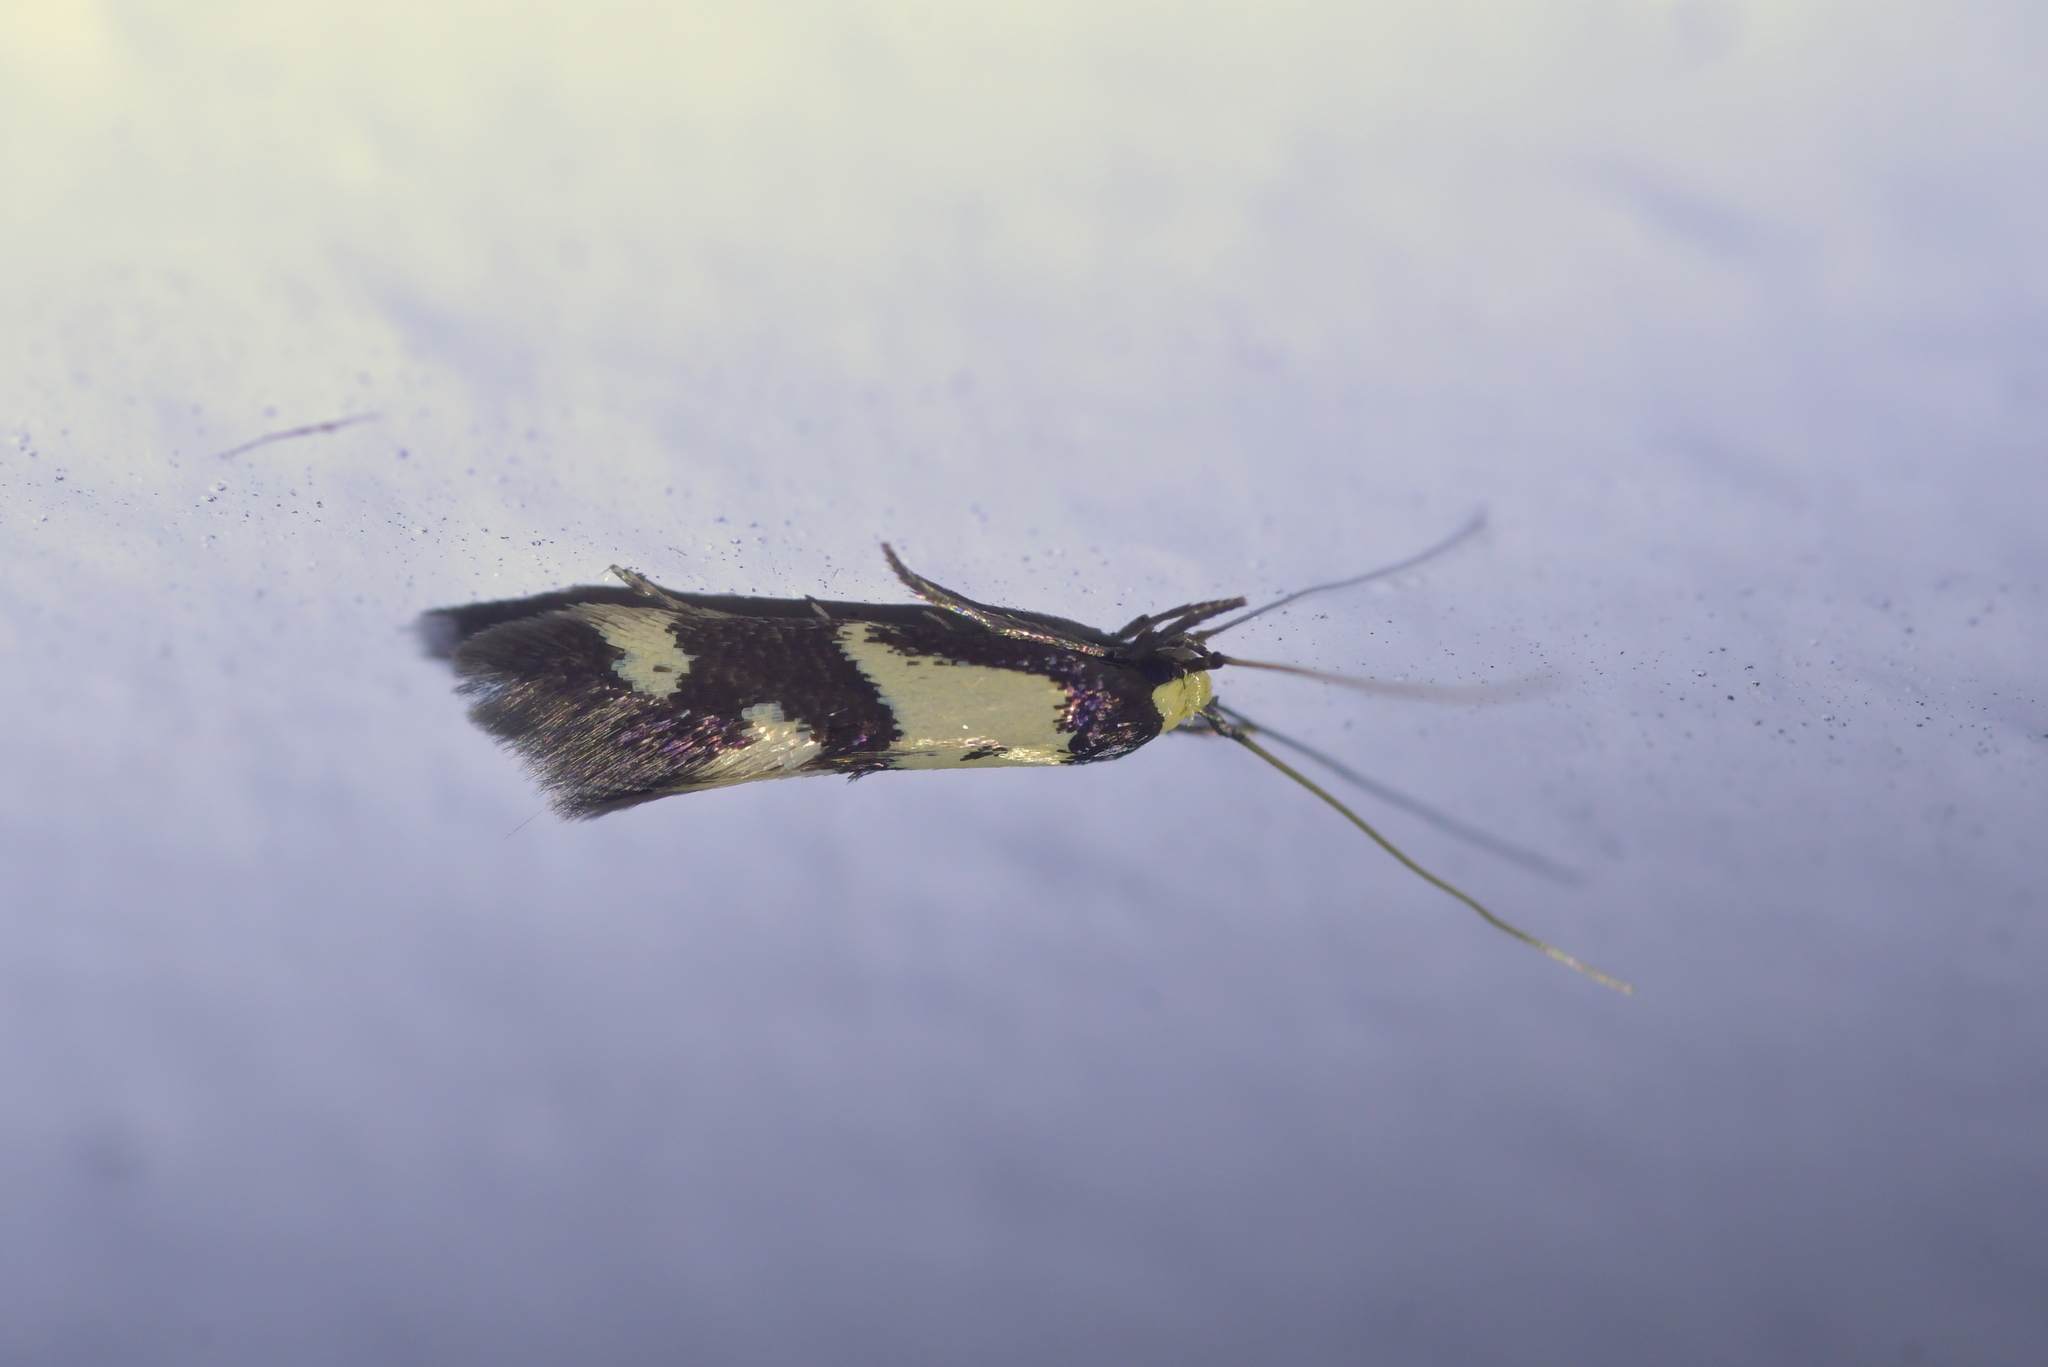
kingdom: Animalia
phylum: Arthropoda
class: Insecta
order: Lepidoptera
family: Tineidae
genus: Opogona
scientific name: Opogona comptella
